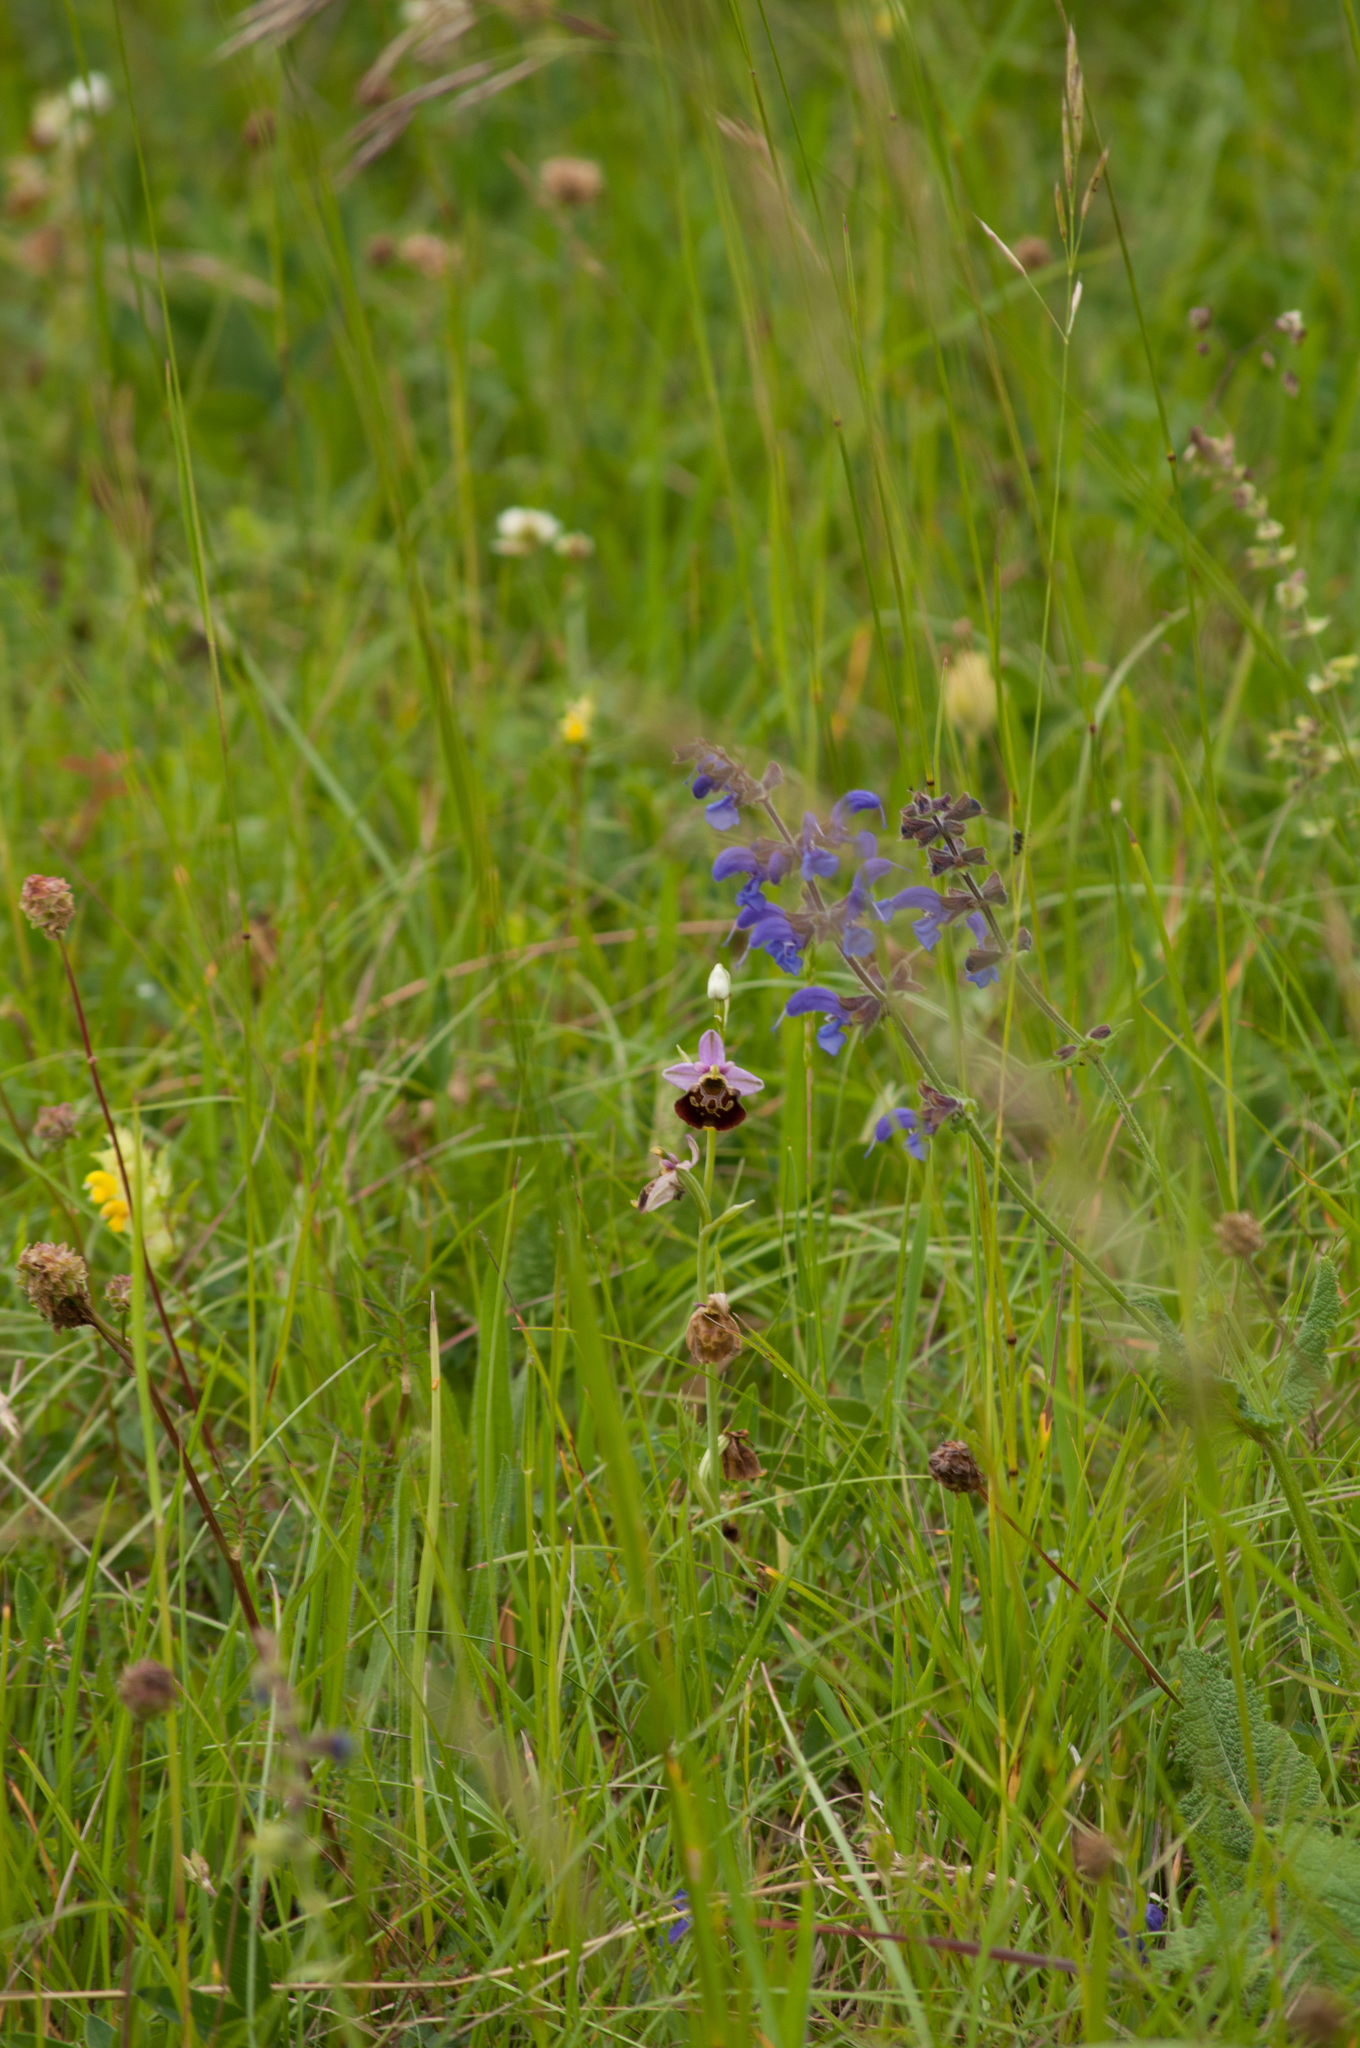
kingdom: Plantae
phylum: Tracheophyta
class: Liliopsida
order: Asparagales
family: Orchidaceae
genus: Ophrys
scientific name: Ophrys holosericea
